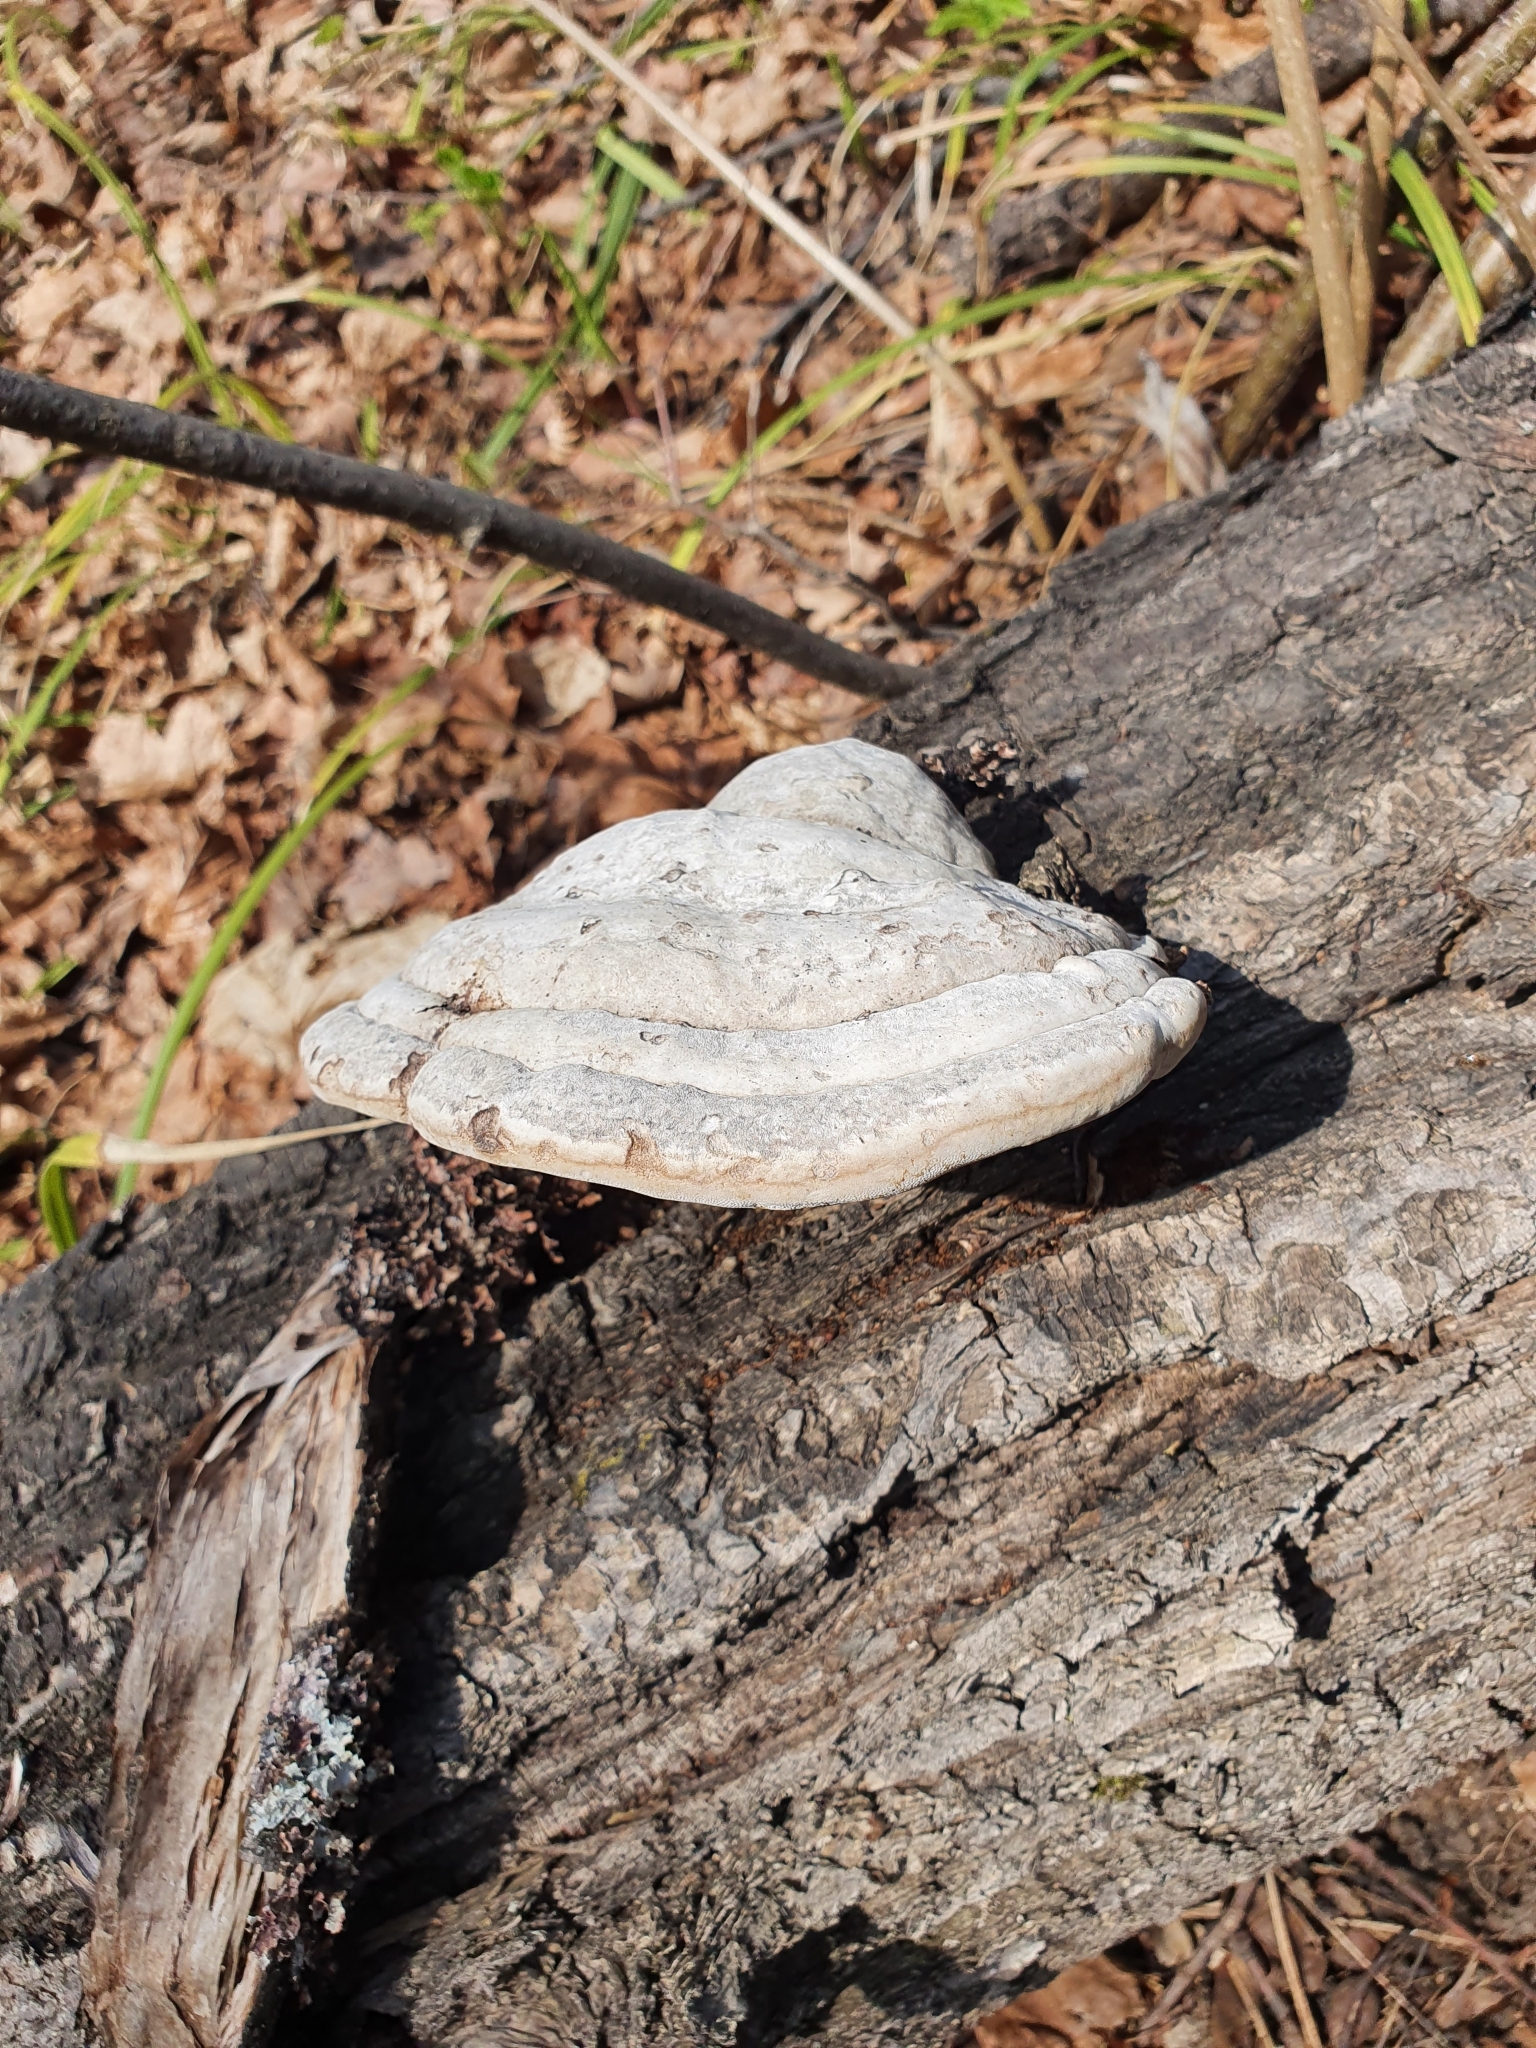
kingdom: Fungi
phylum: Basidiomycota
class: Agaricomycetes
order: Polyporales
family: Polyporaceae
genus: Fomes
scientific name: Fomes fomentarius
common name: Hoof fungus
